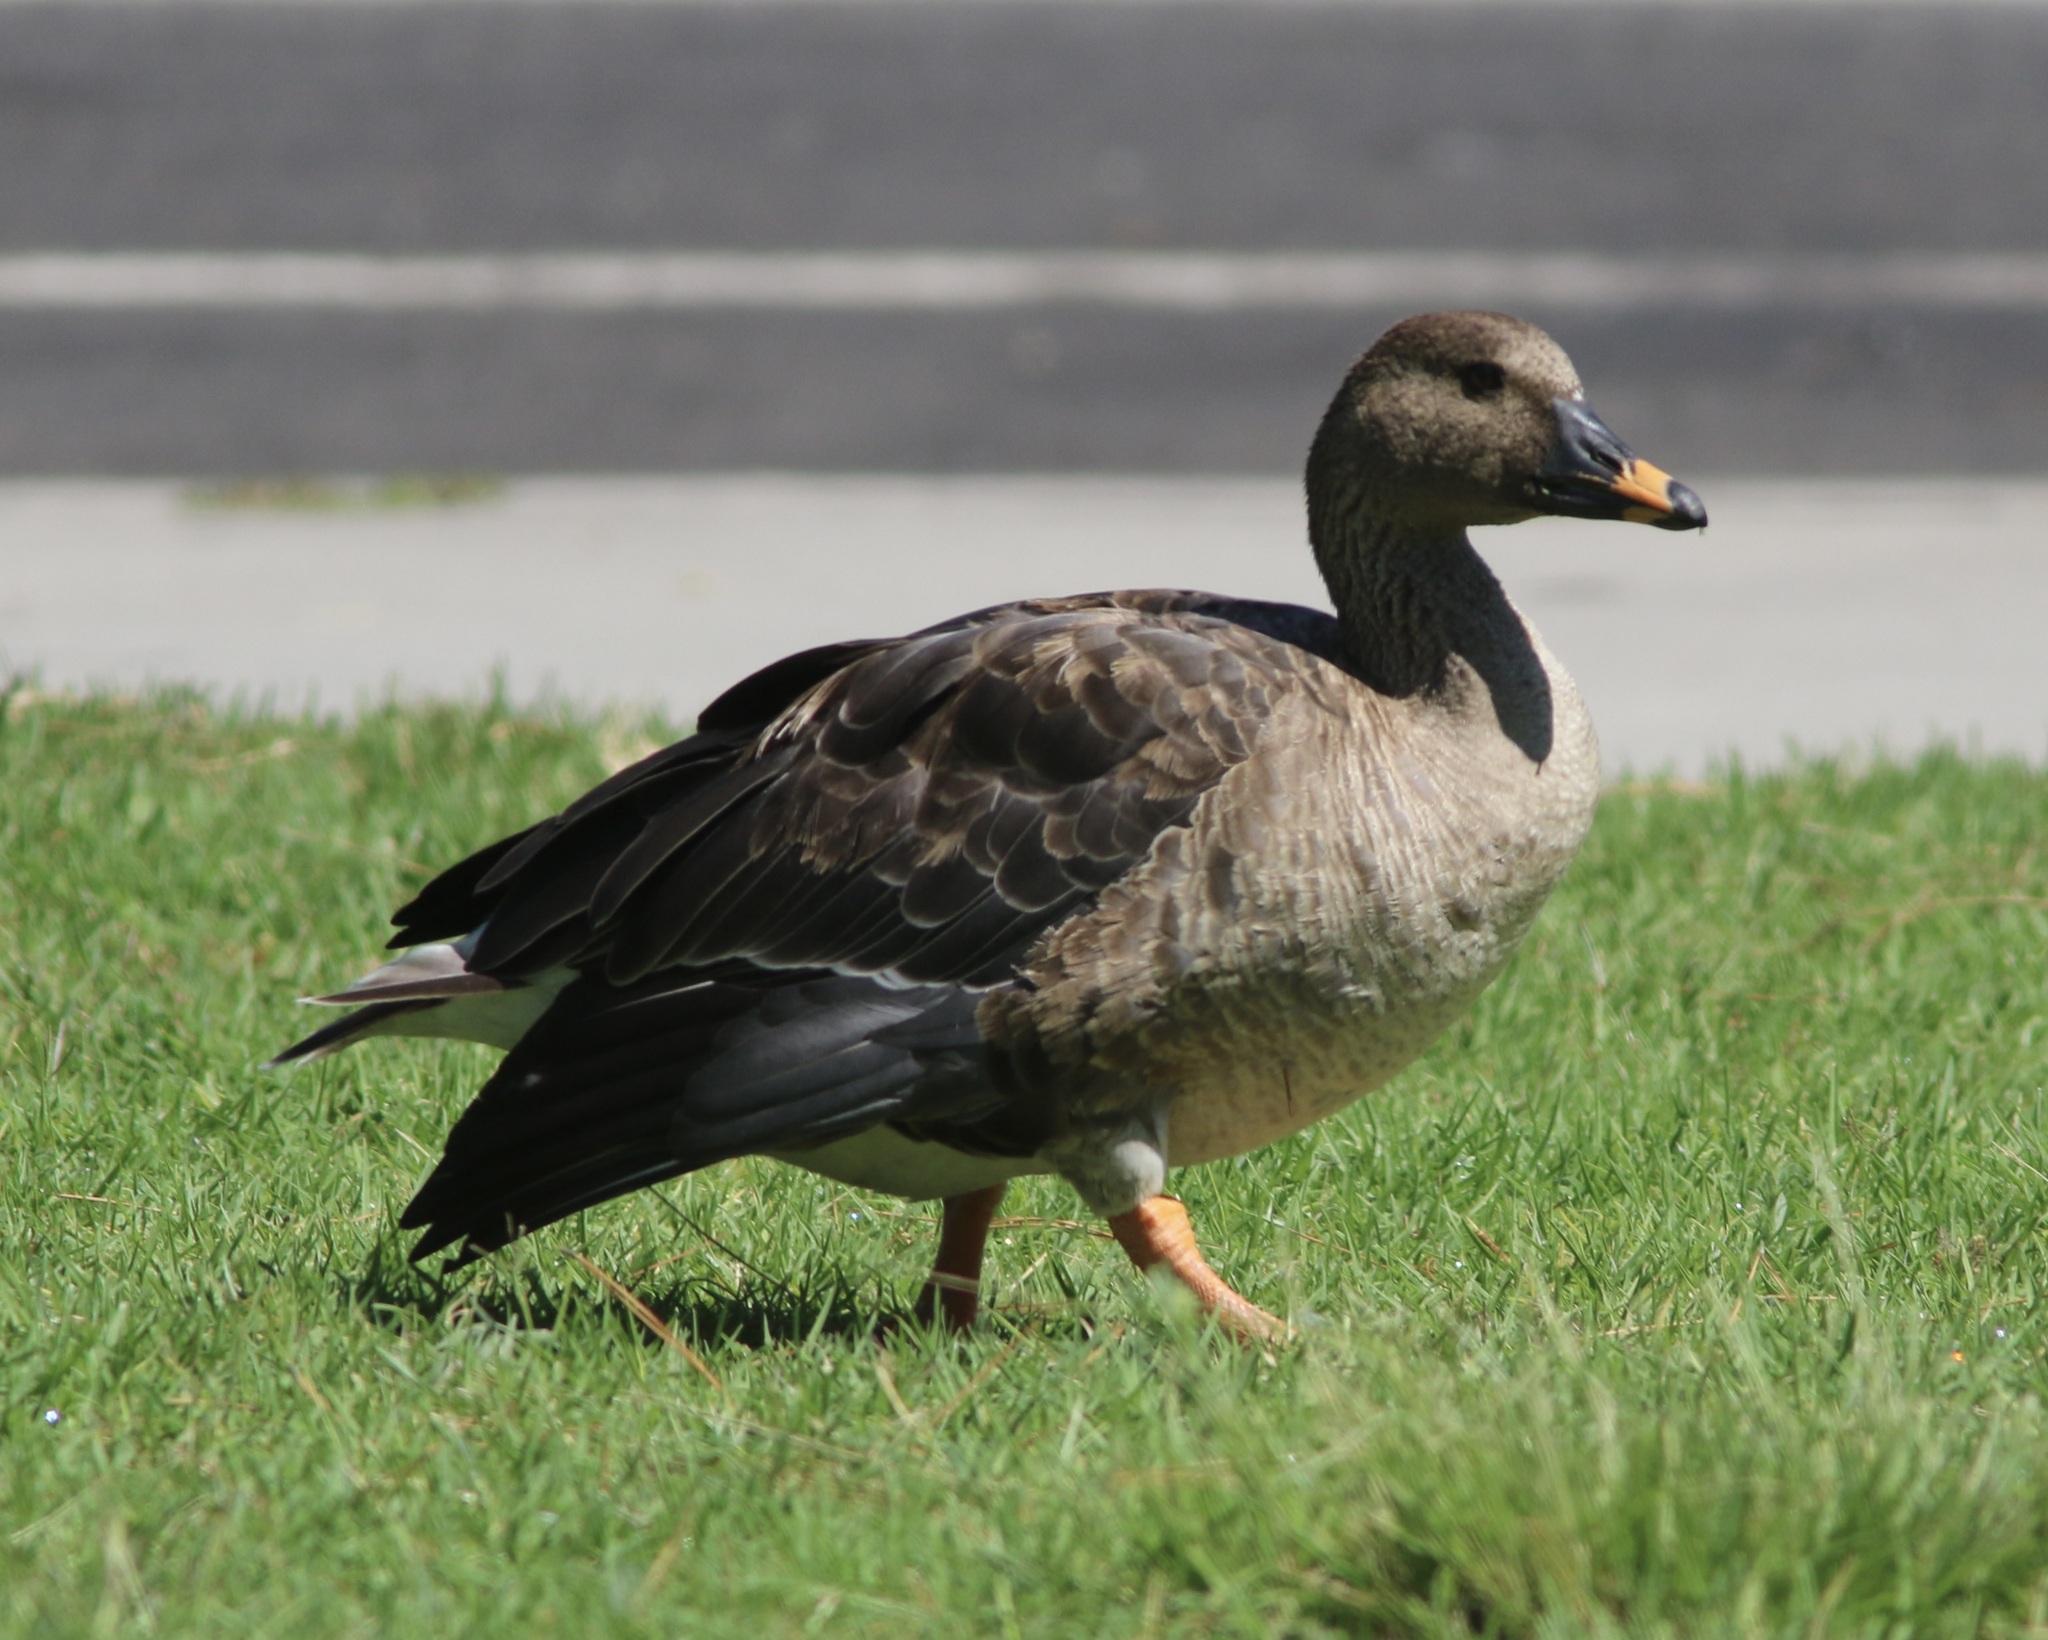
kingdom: Animalia
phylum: Chordata
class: Aves
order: Anseriformes
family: Anatidae
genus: Anser
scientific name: Anser serrirostris
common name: Tundra bean goose
